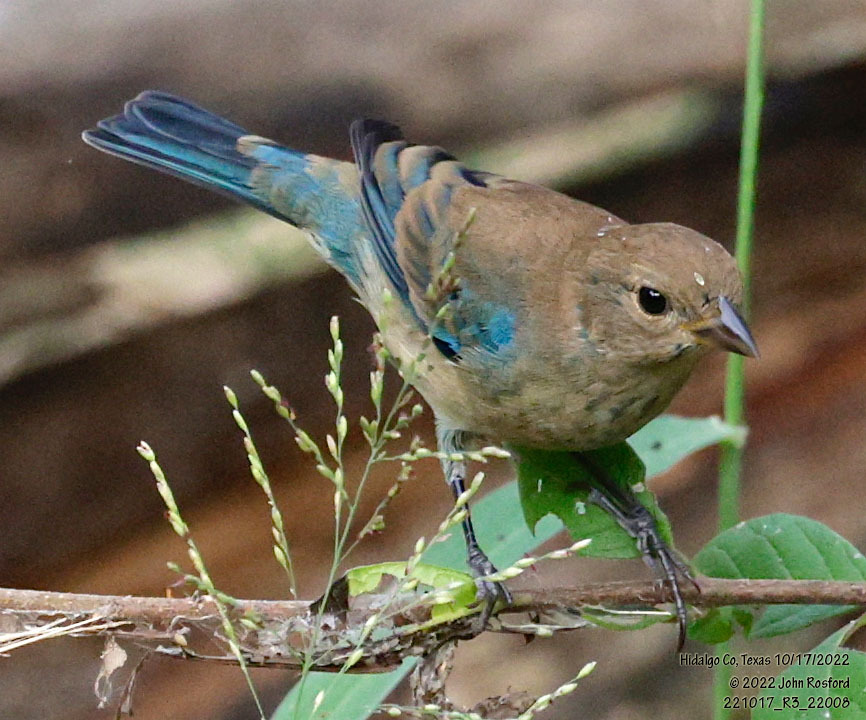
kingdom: Animalia
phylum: Chordata
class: Aves
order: Passeriformes
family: Cardinalidae
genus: Passerina
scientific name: Passerina cyanea
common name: Indigo bunting
